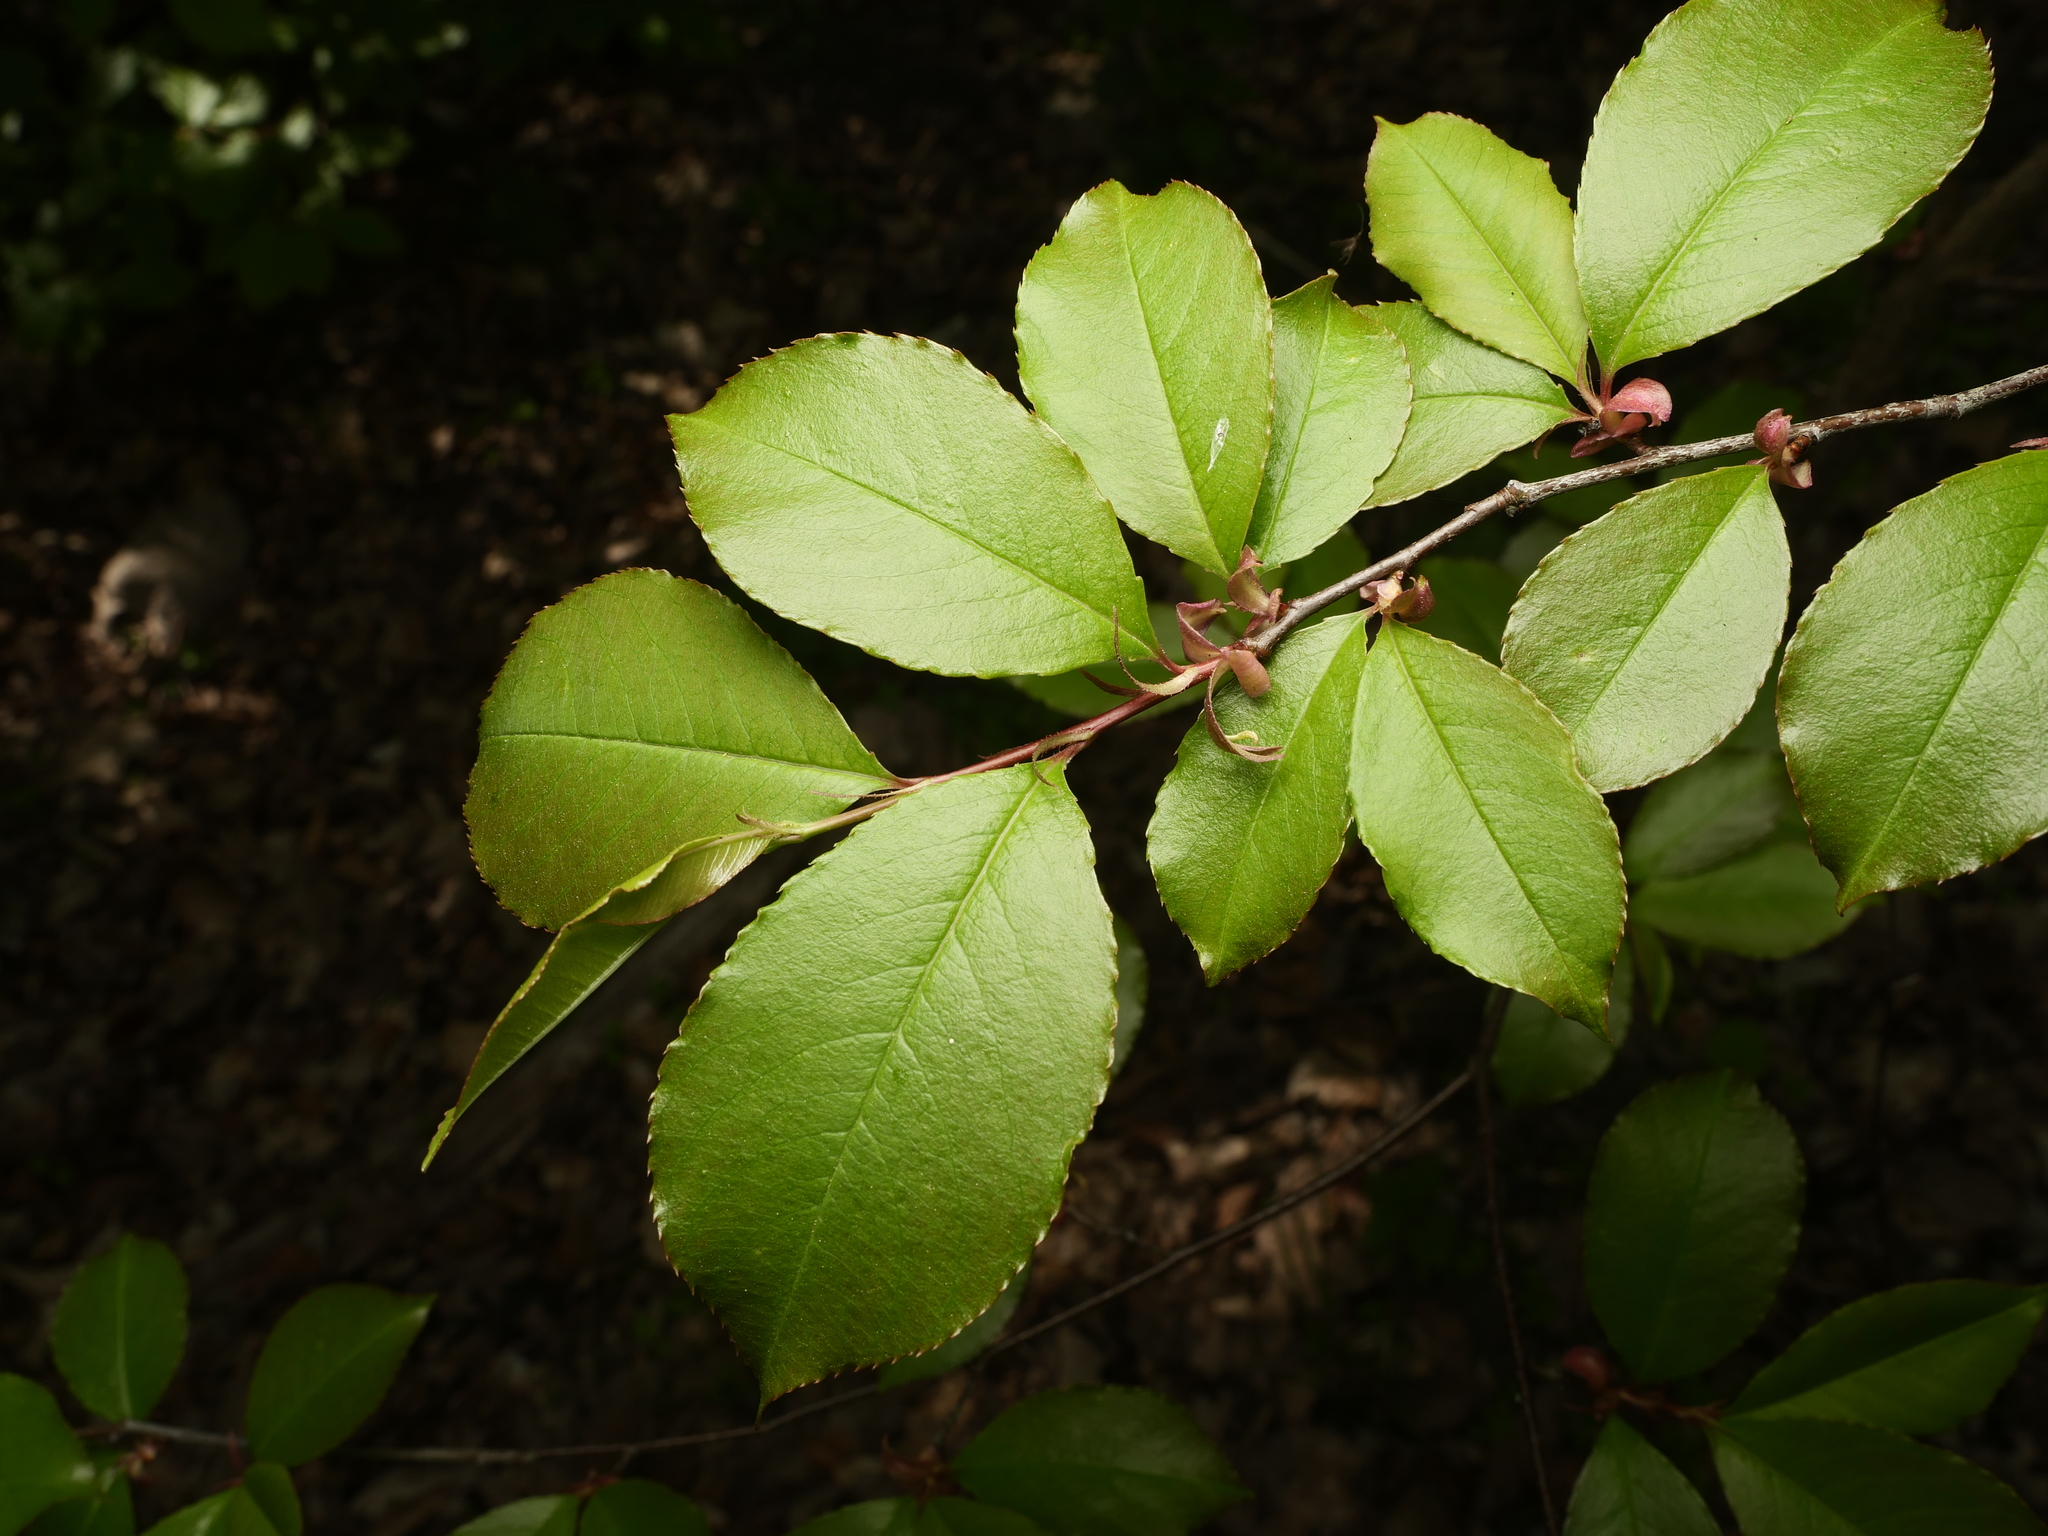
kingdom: Plantae
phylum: Tracheophyta
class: Magnoliopsida
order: Rosales
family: Rosaceae
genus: Prunus
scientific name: Prunus serotina
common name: Black cherry
